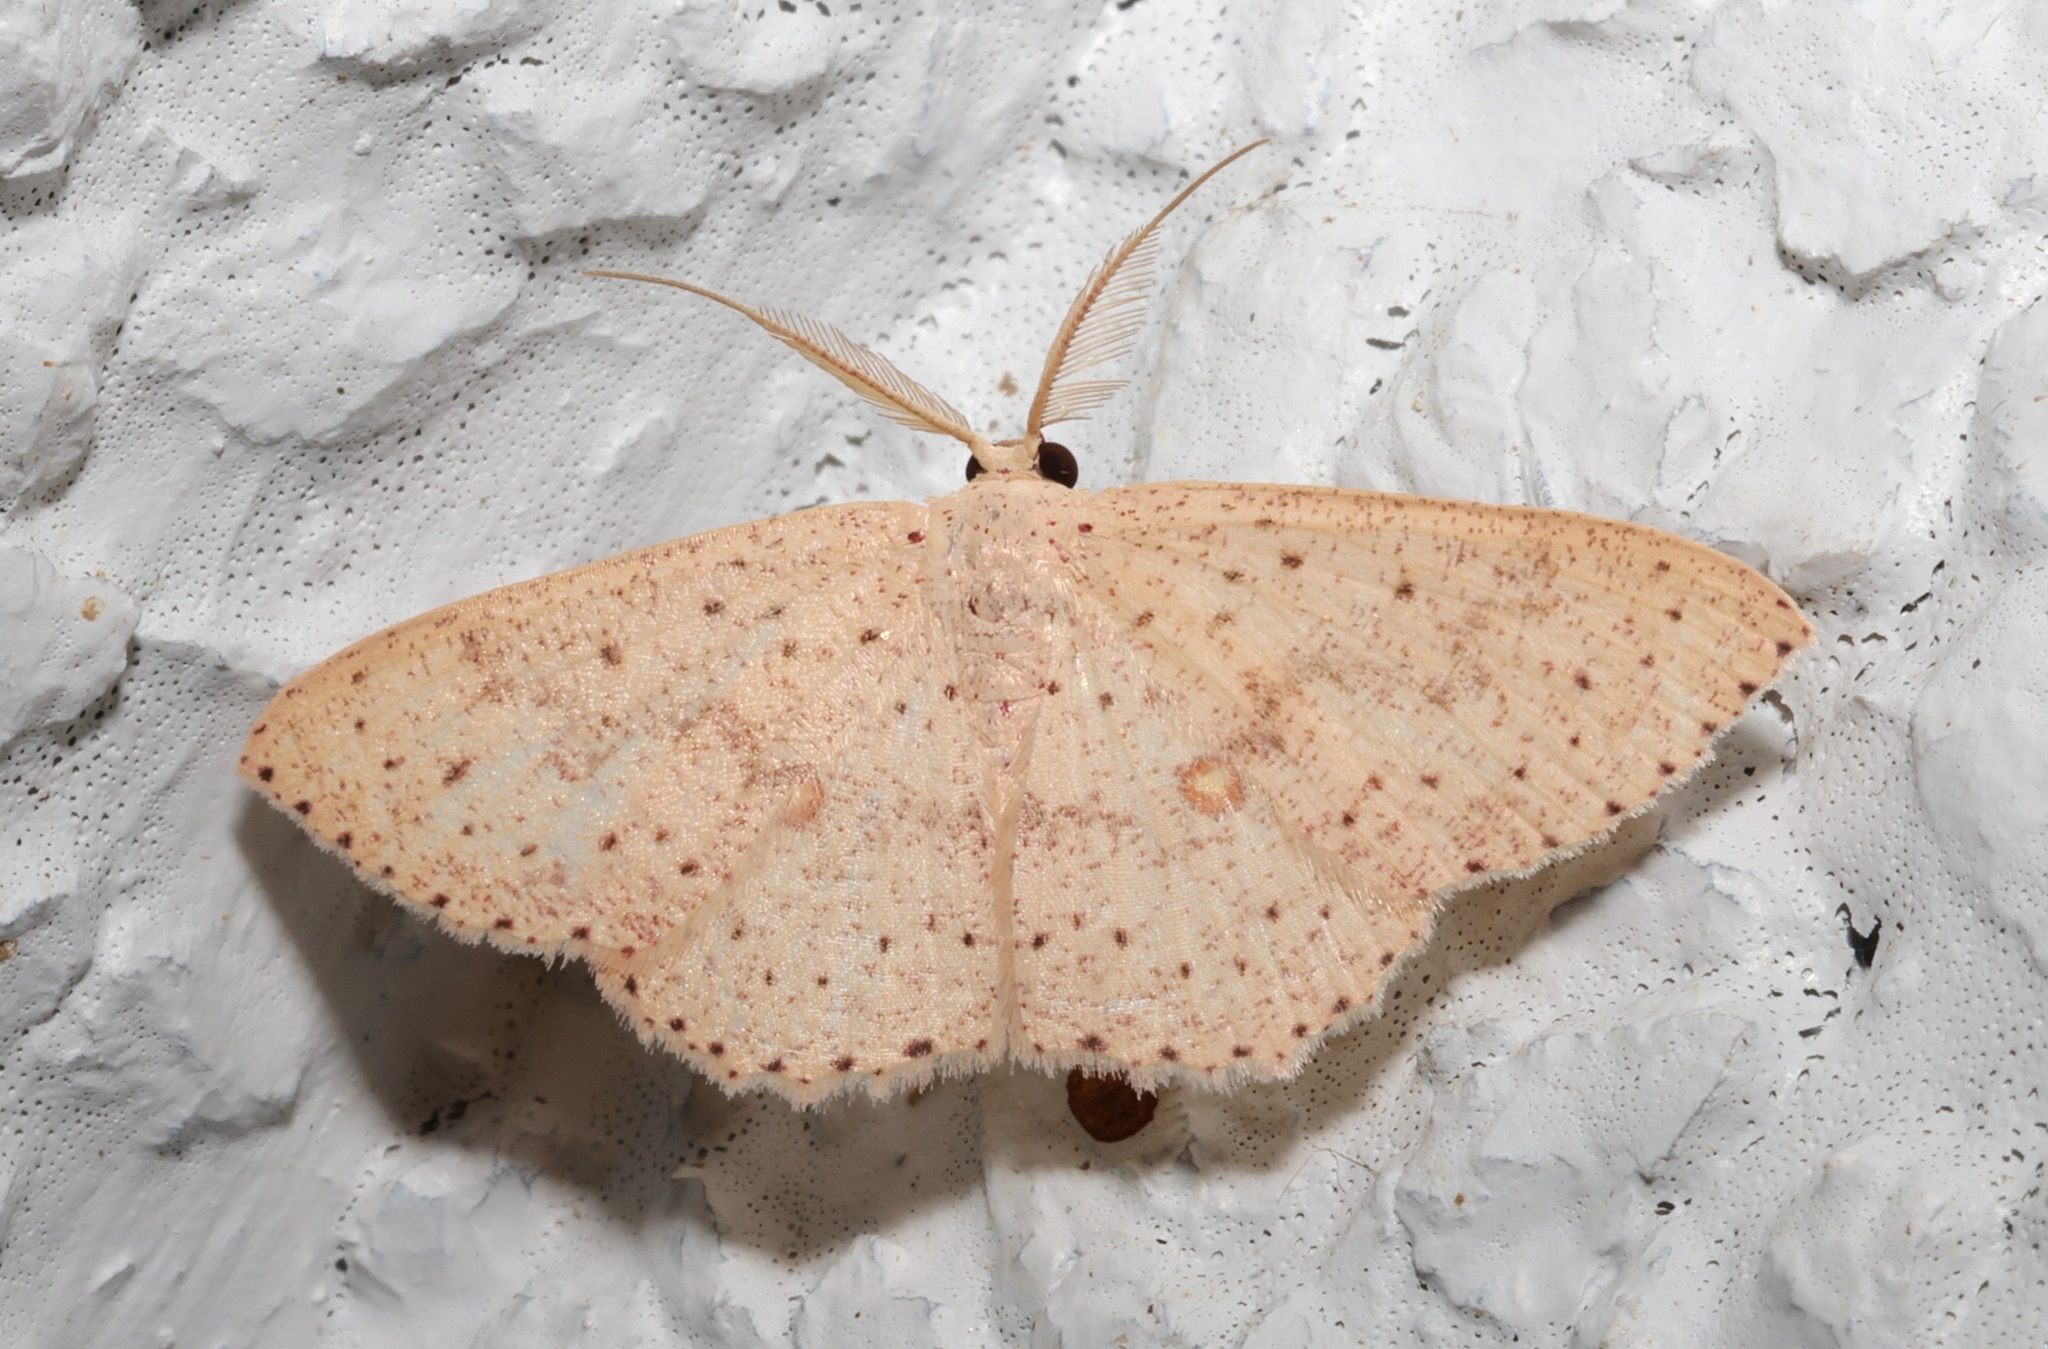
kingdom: Animalia
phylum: Arthropoda
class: Insecta
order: Lepidoptera
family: Geometridae
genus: Perixera
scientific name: Perixera flavispila
